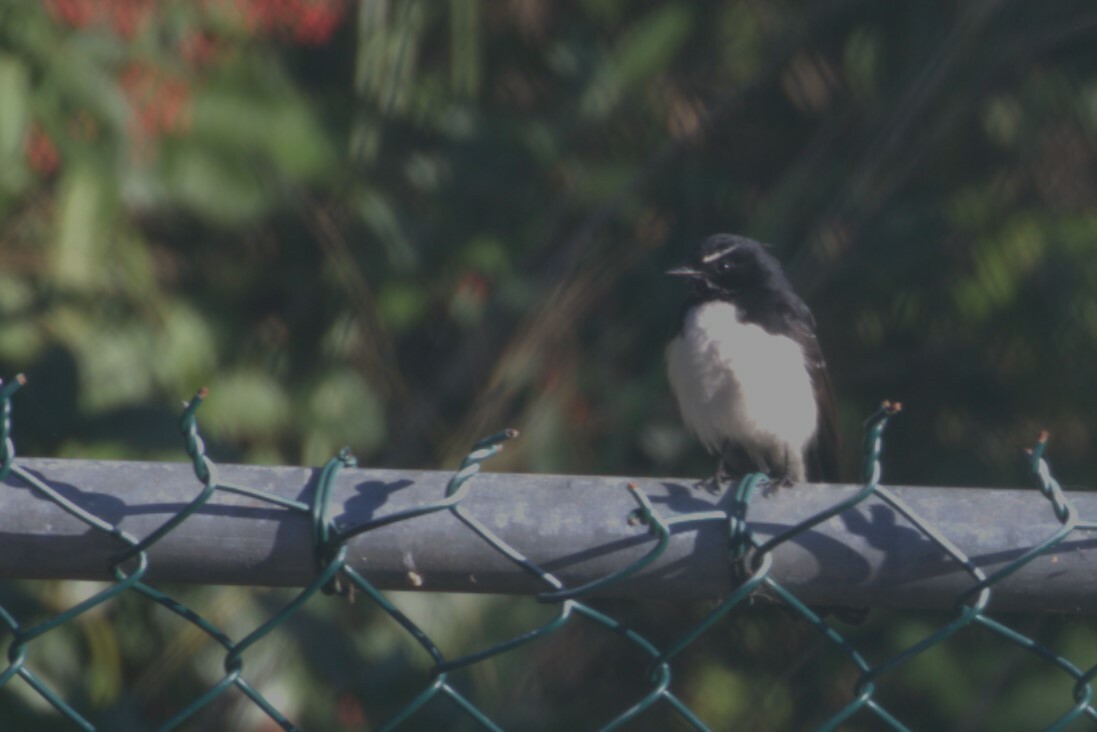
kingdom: Animalia
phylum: Chordata
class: Aves
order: Passeriformes
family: Rhipiduridae
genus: Rhipidura
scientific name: Rhipidura leucophrys
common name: Willie wagtail
